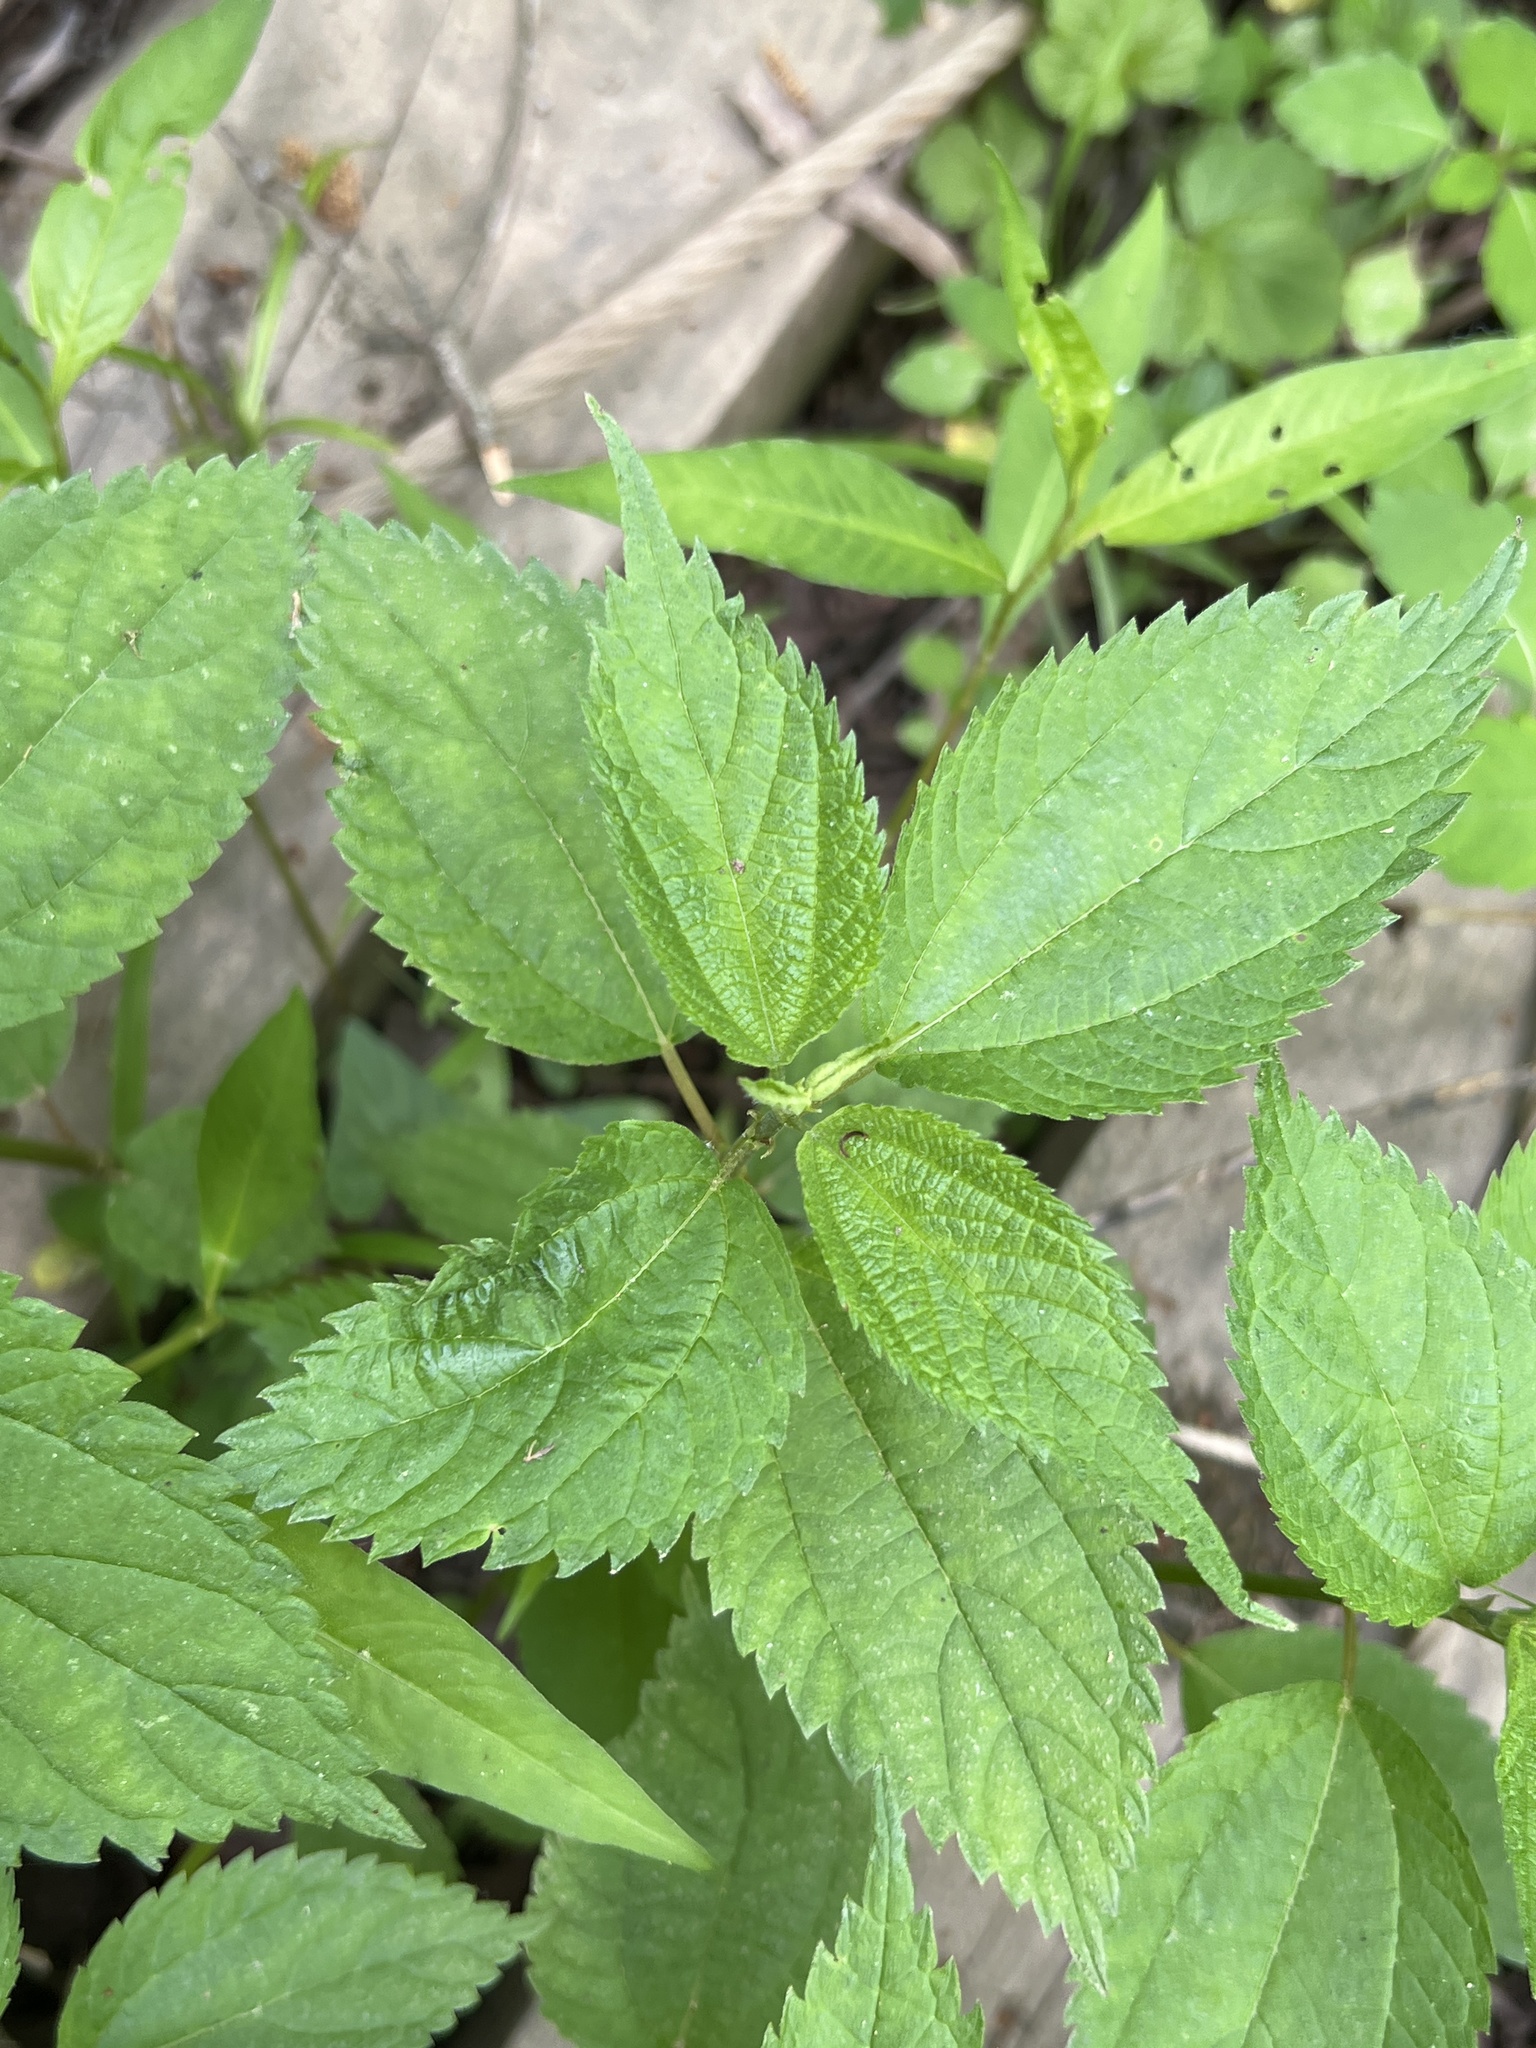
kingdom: Plantae
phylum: Tracheophyta
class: Magnoliopsida
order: Rosales
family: Urticaceae
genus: Boehmeria
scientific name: Boehmeria cylindrica
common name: Bog-hemp
